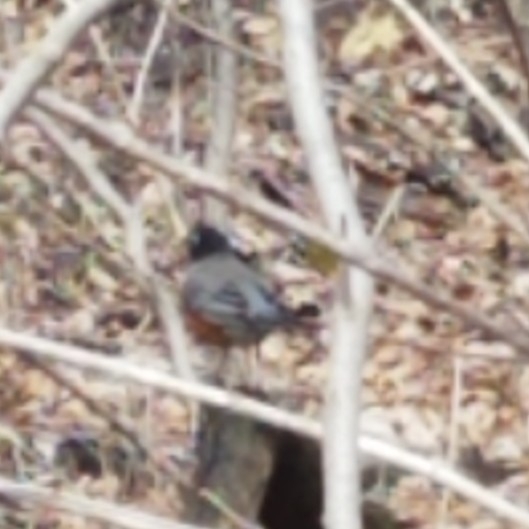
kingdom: Animalia
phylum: Chordata
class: Aves
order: Passeriformes
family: Turdidae
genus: Turdus
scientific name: Turdus migratorius
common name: American robin
